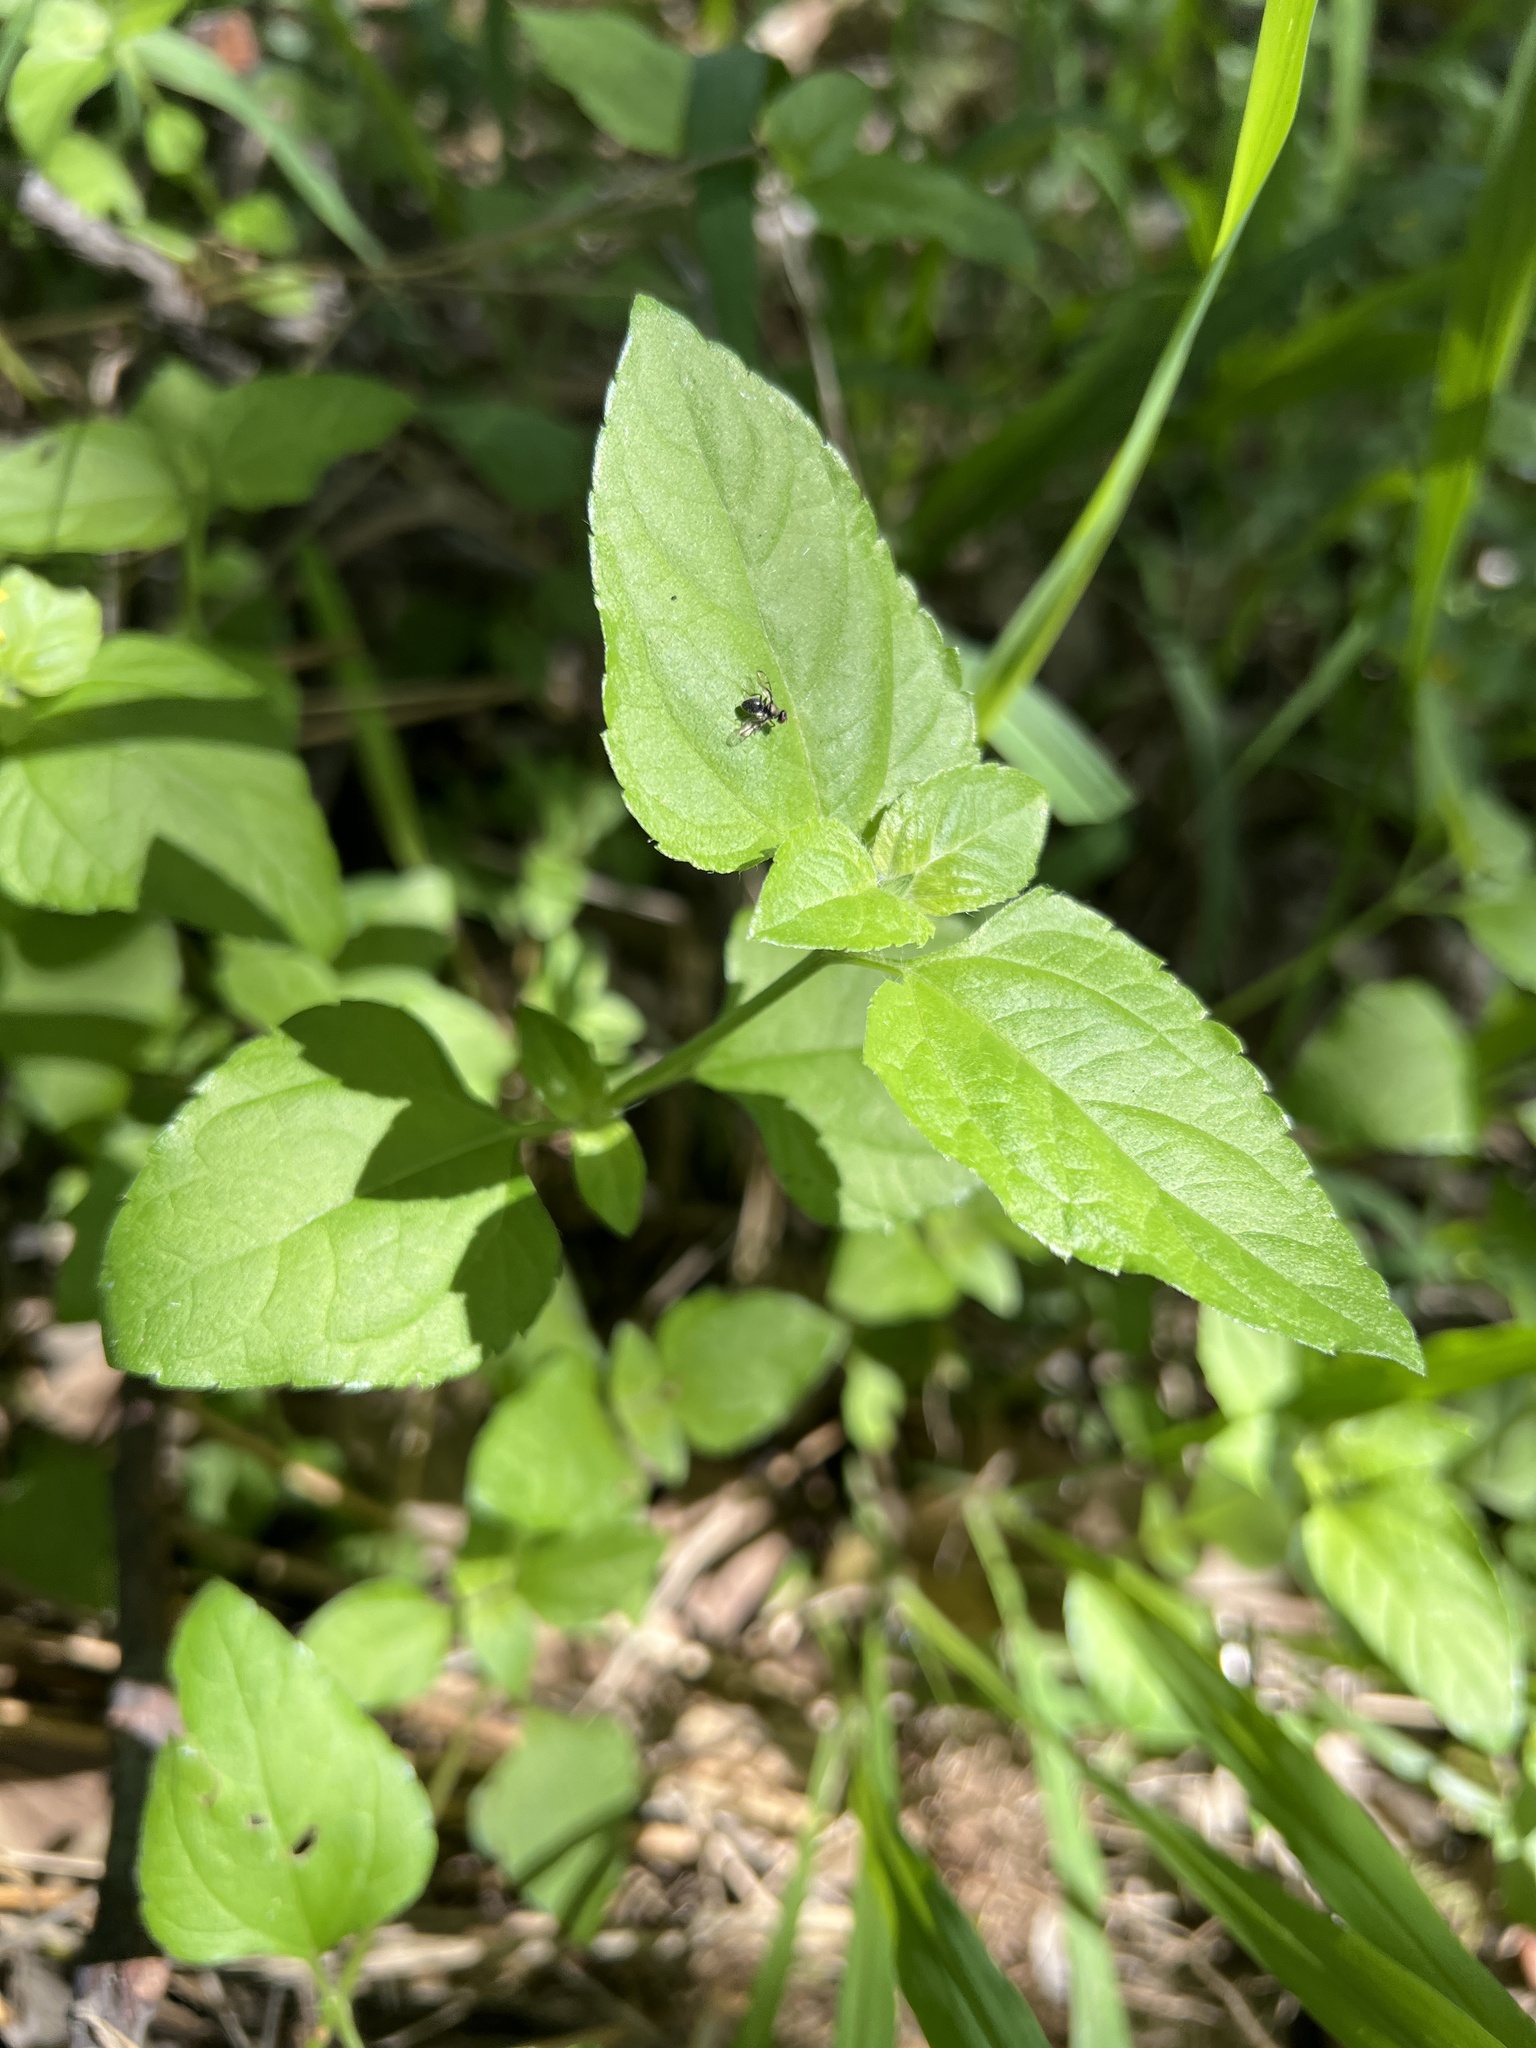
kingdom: Plantae
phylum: Tracheophyta
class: Magnoliopsida
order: Asterales
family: Asteraceae
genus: Calyptocarpus
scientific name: Calyptocarpus vialis
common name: Straggler daisy
